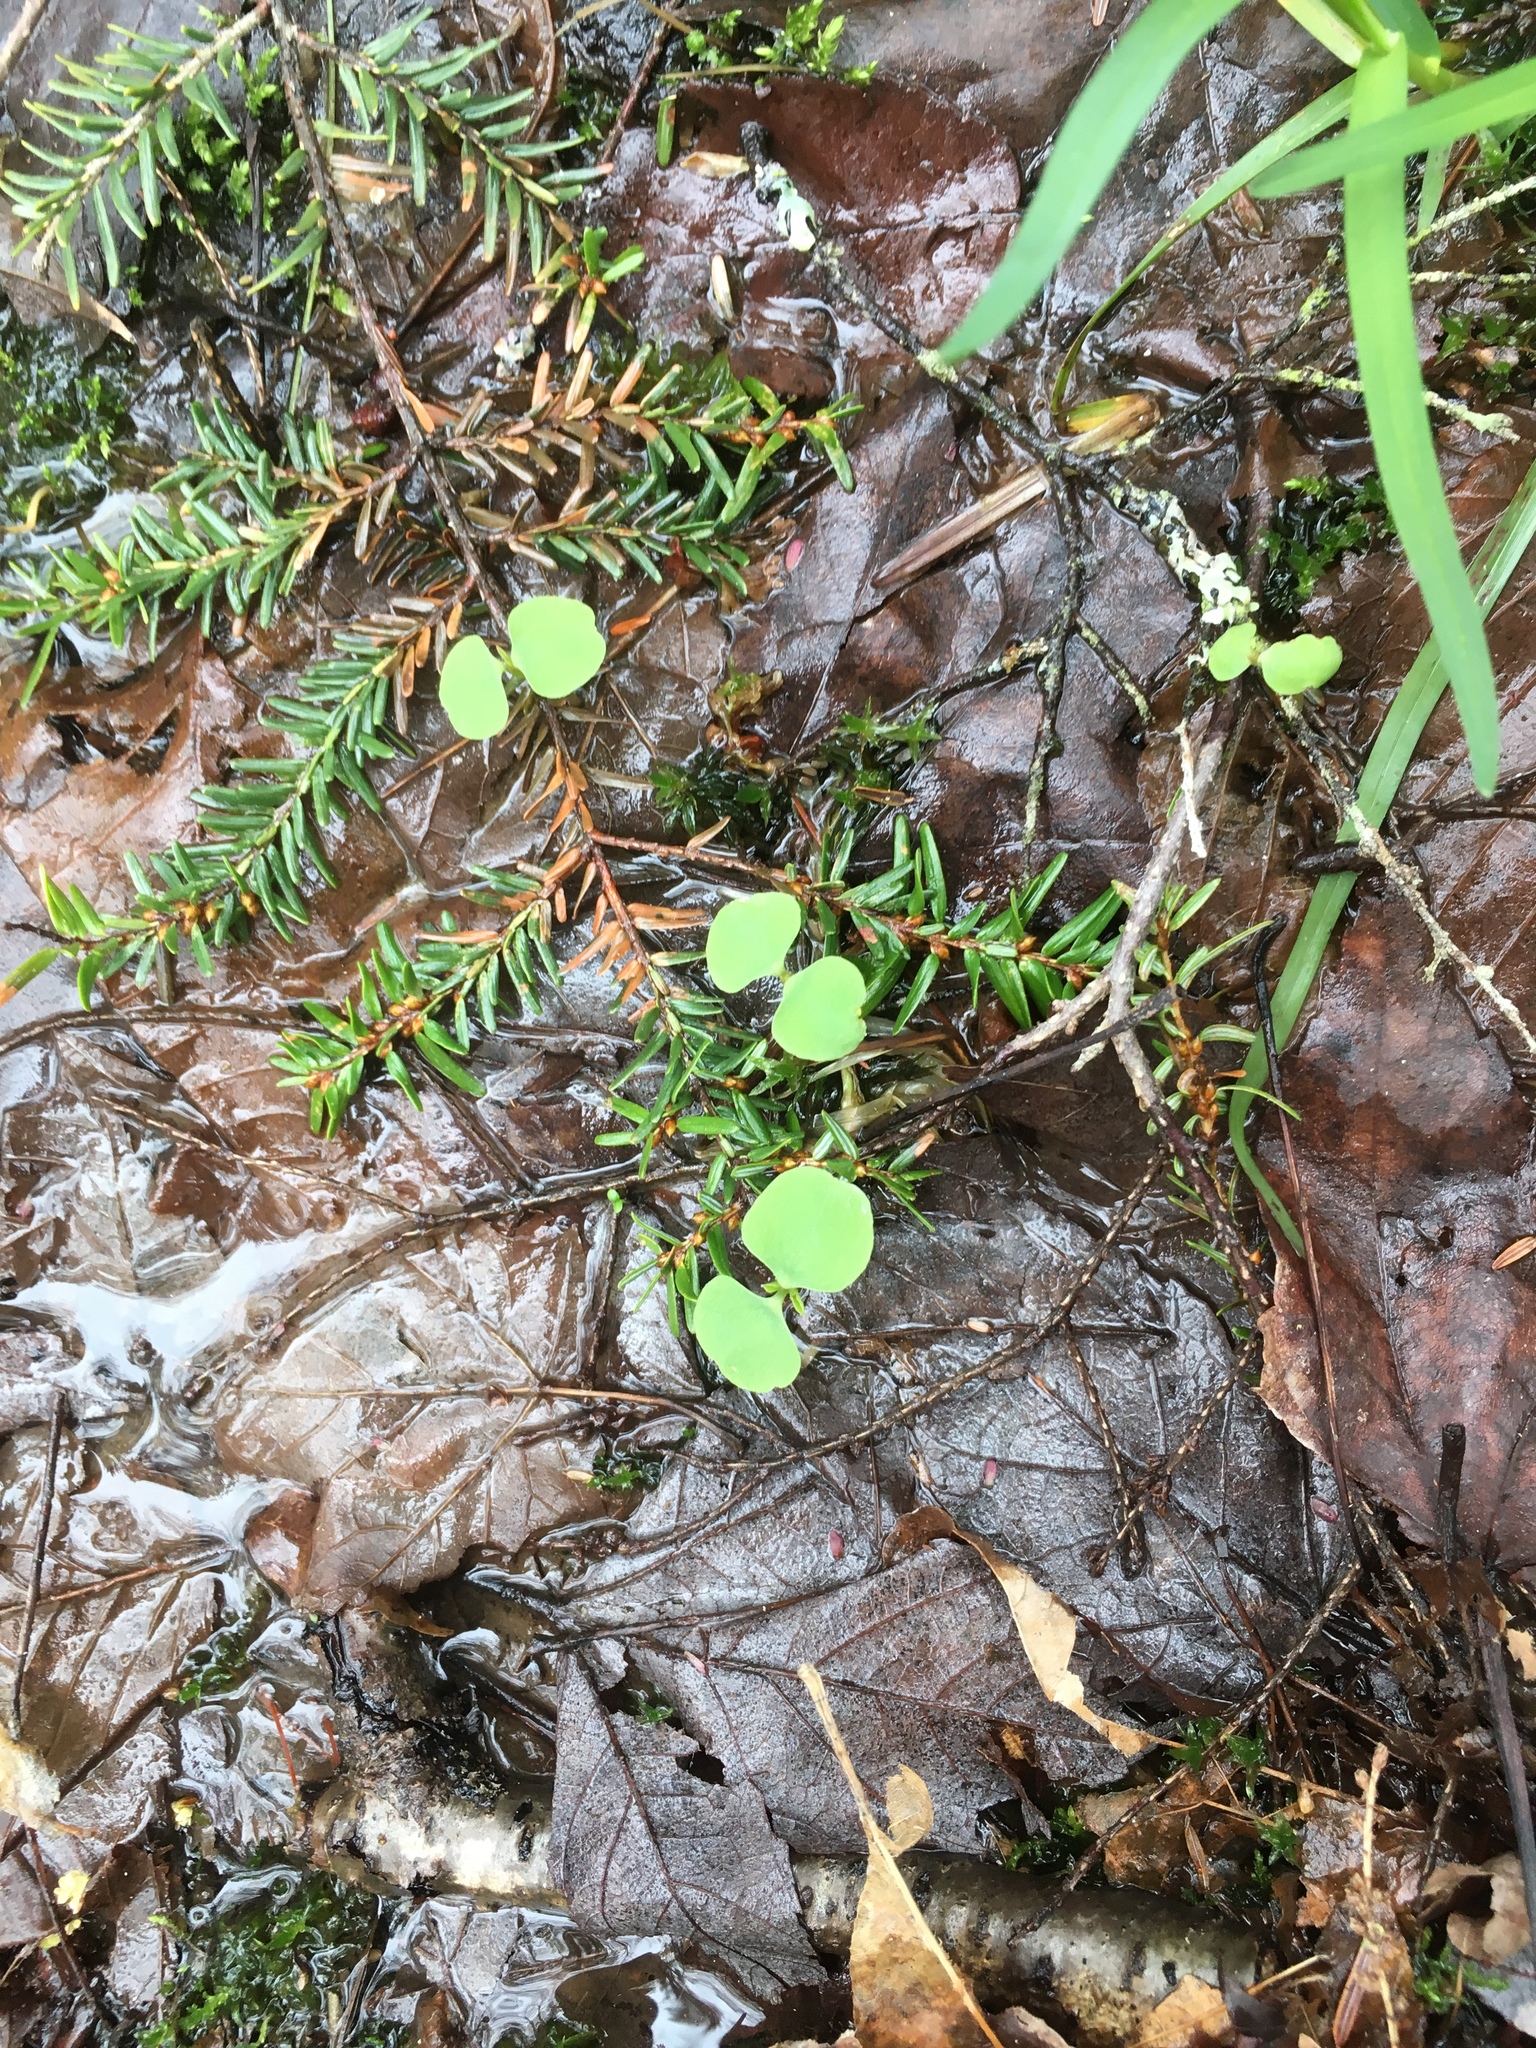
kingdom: Plantae
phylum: Tracheophyta
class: Magnoliopsida
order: Ericales
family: Balsaminaceae
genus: Impatiens
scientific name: Impatiens capensis
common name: Orange balsam
